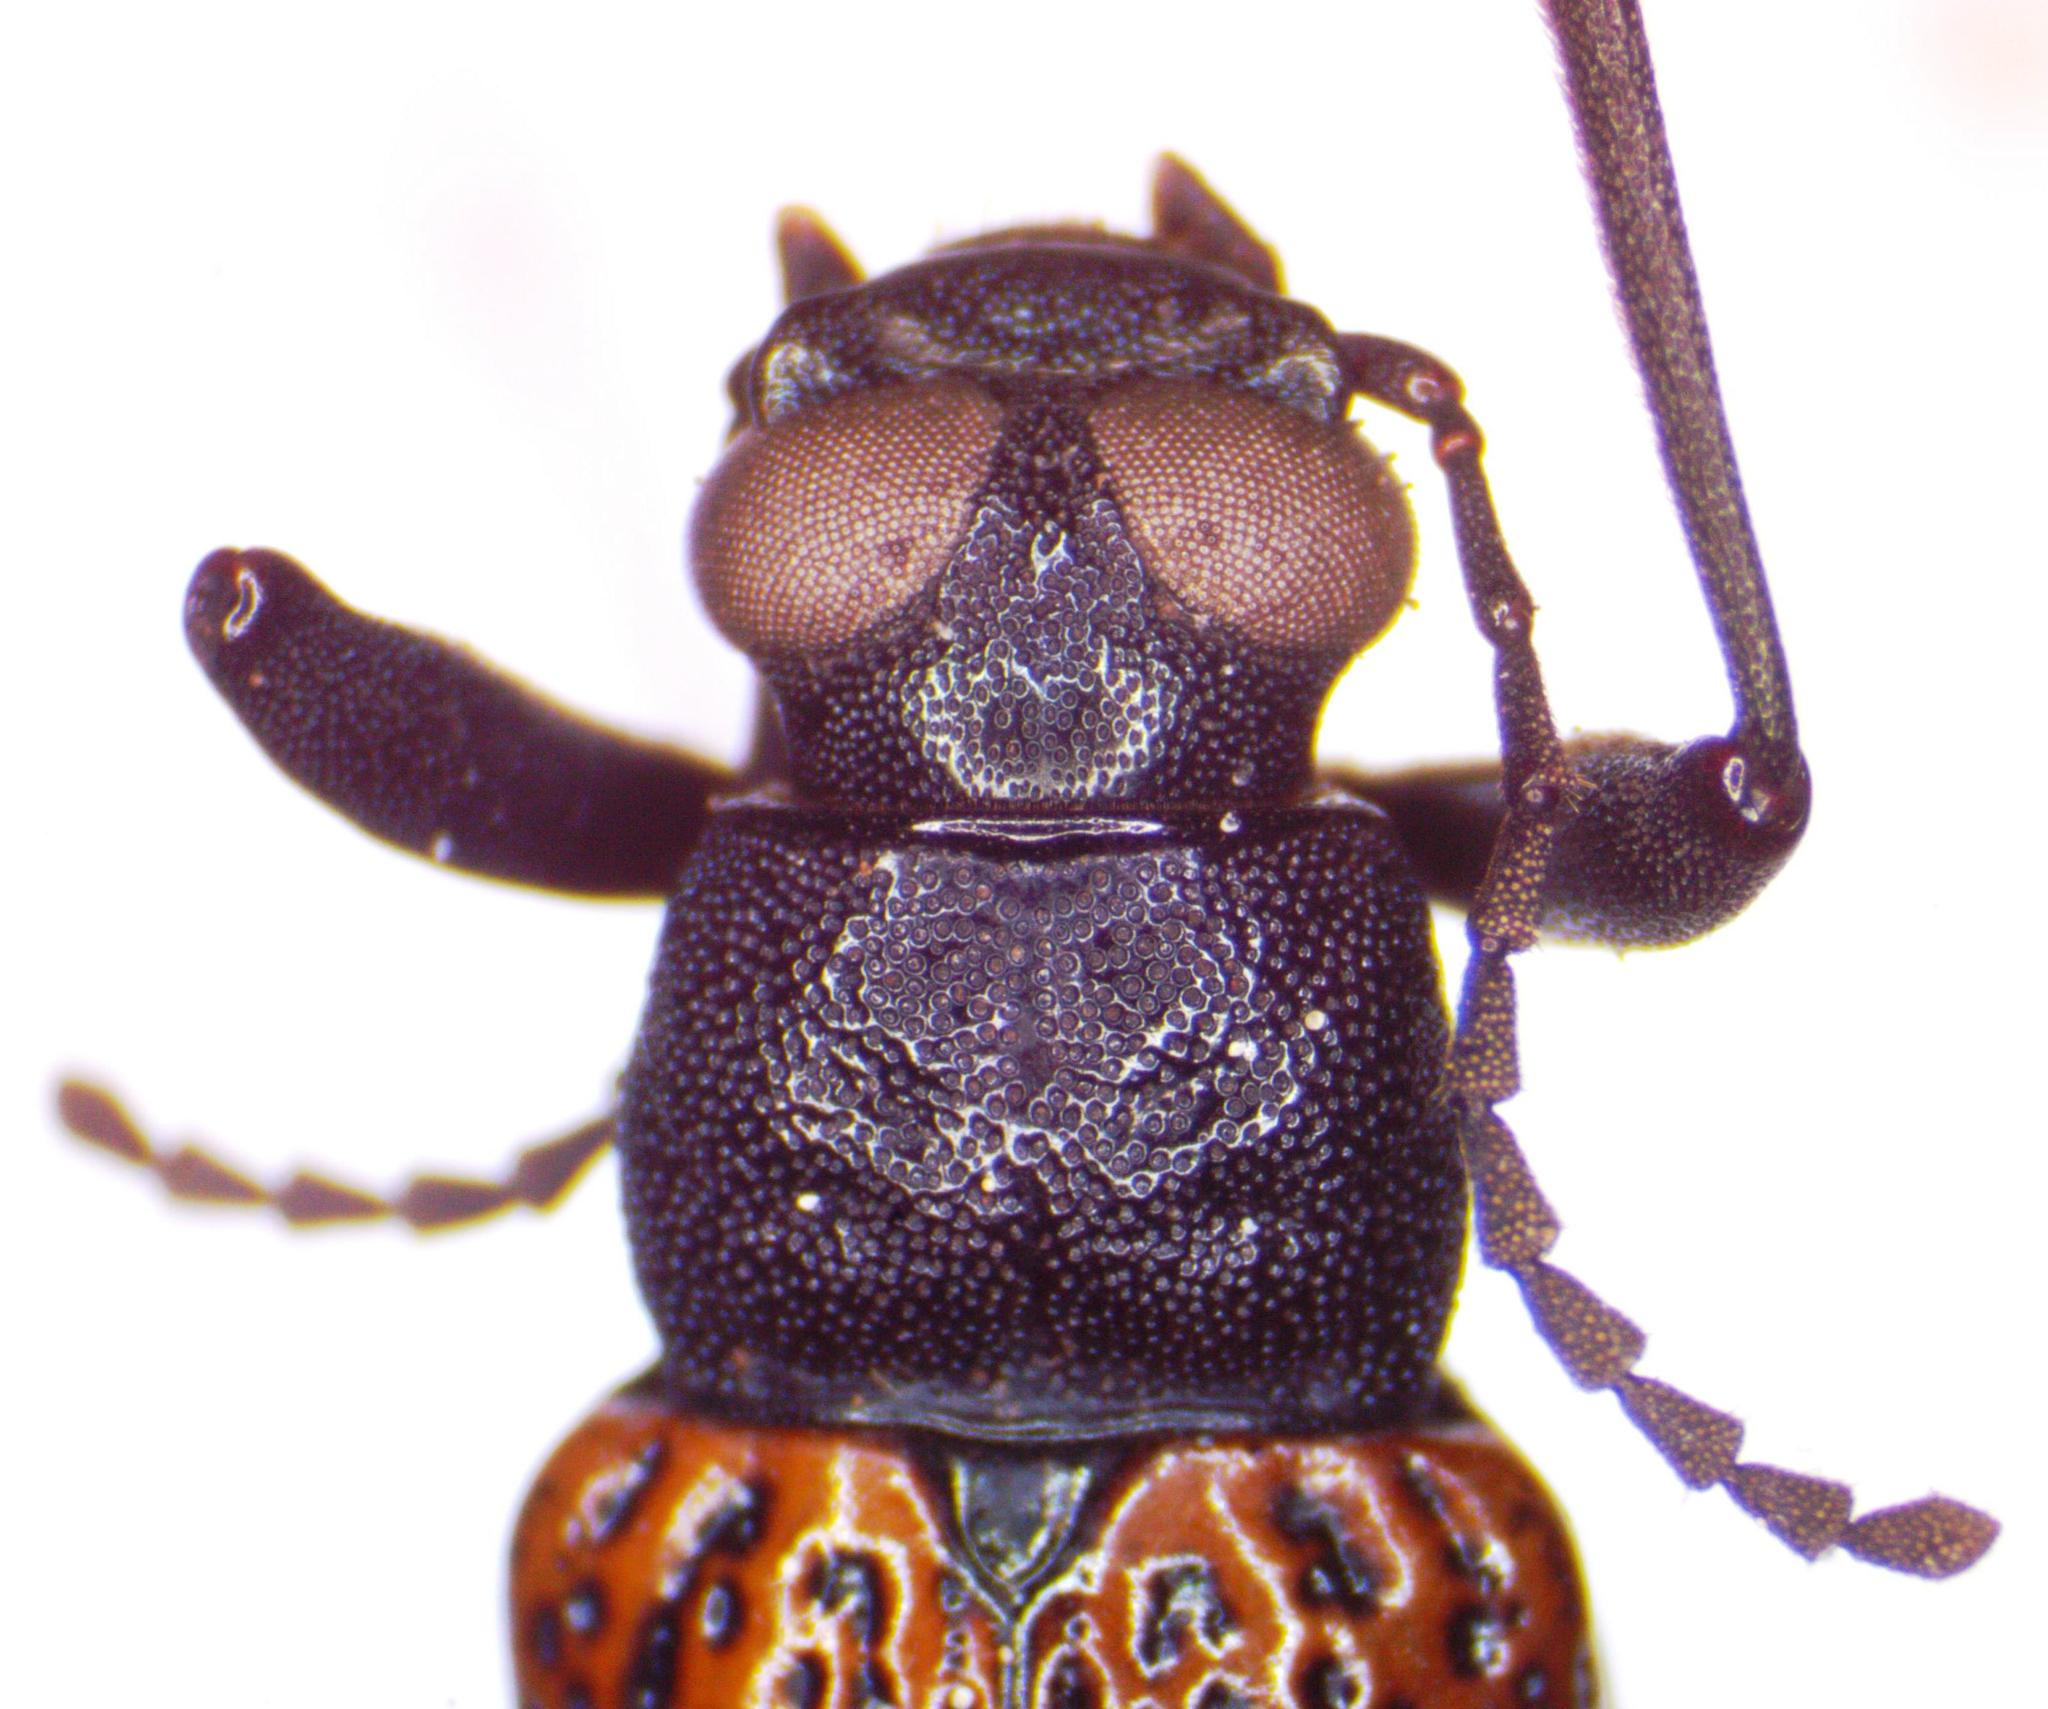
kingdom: Animalia
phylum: Arthropoda
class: Insecta
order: Coleoptera
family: Tenebrionidae
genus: Strongylium
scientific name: Strongylium
